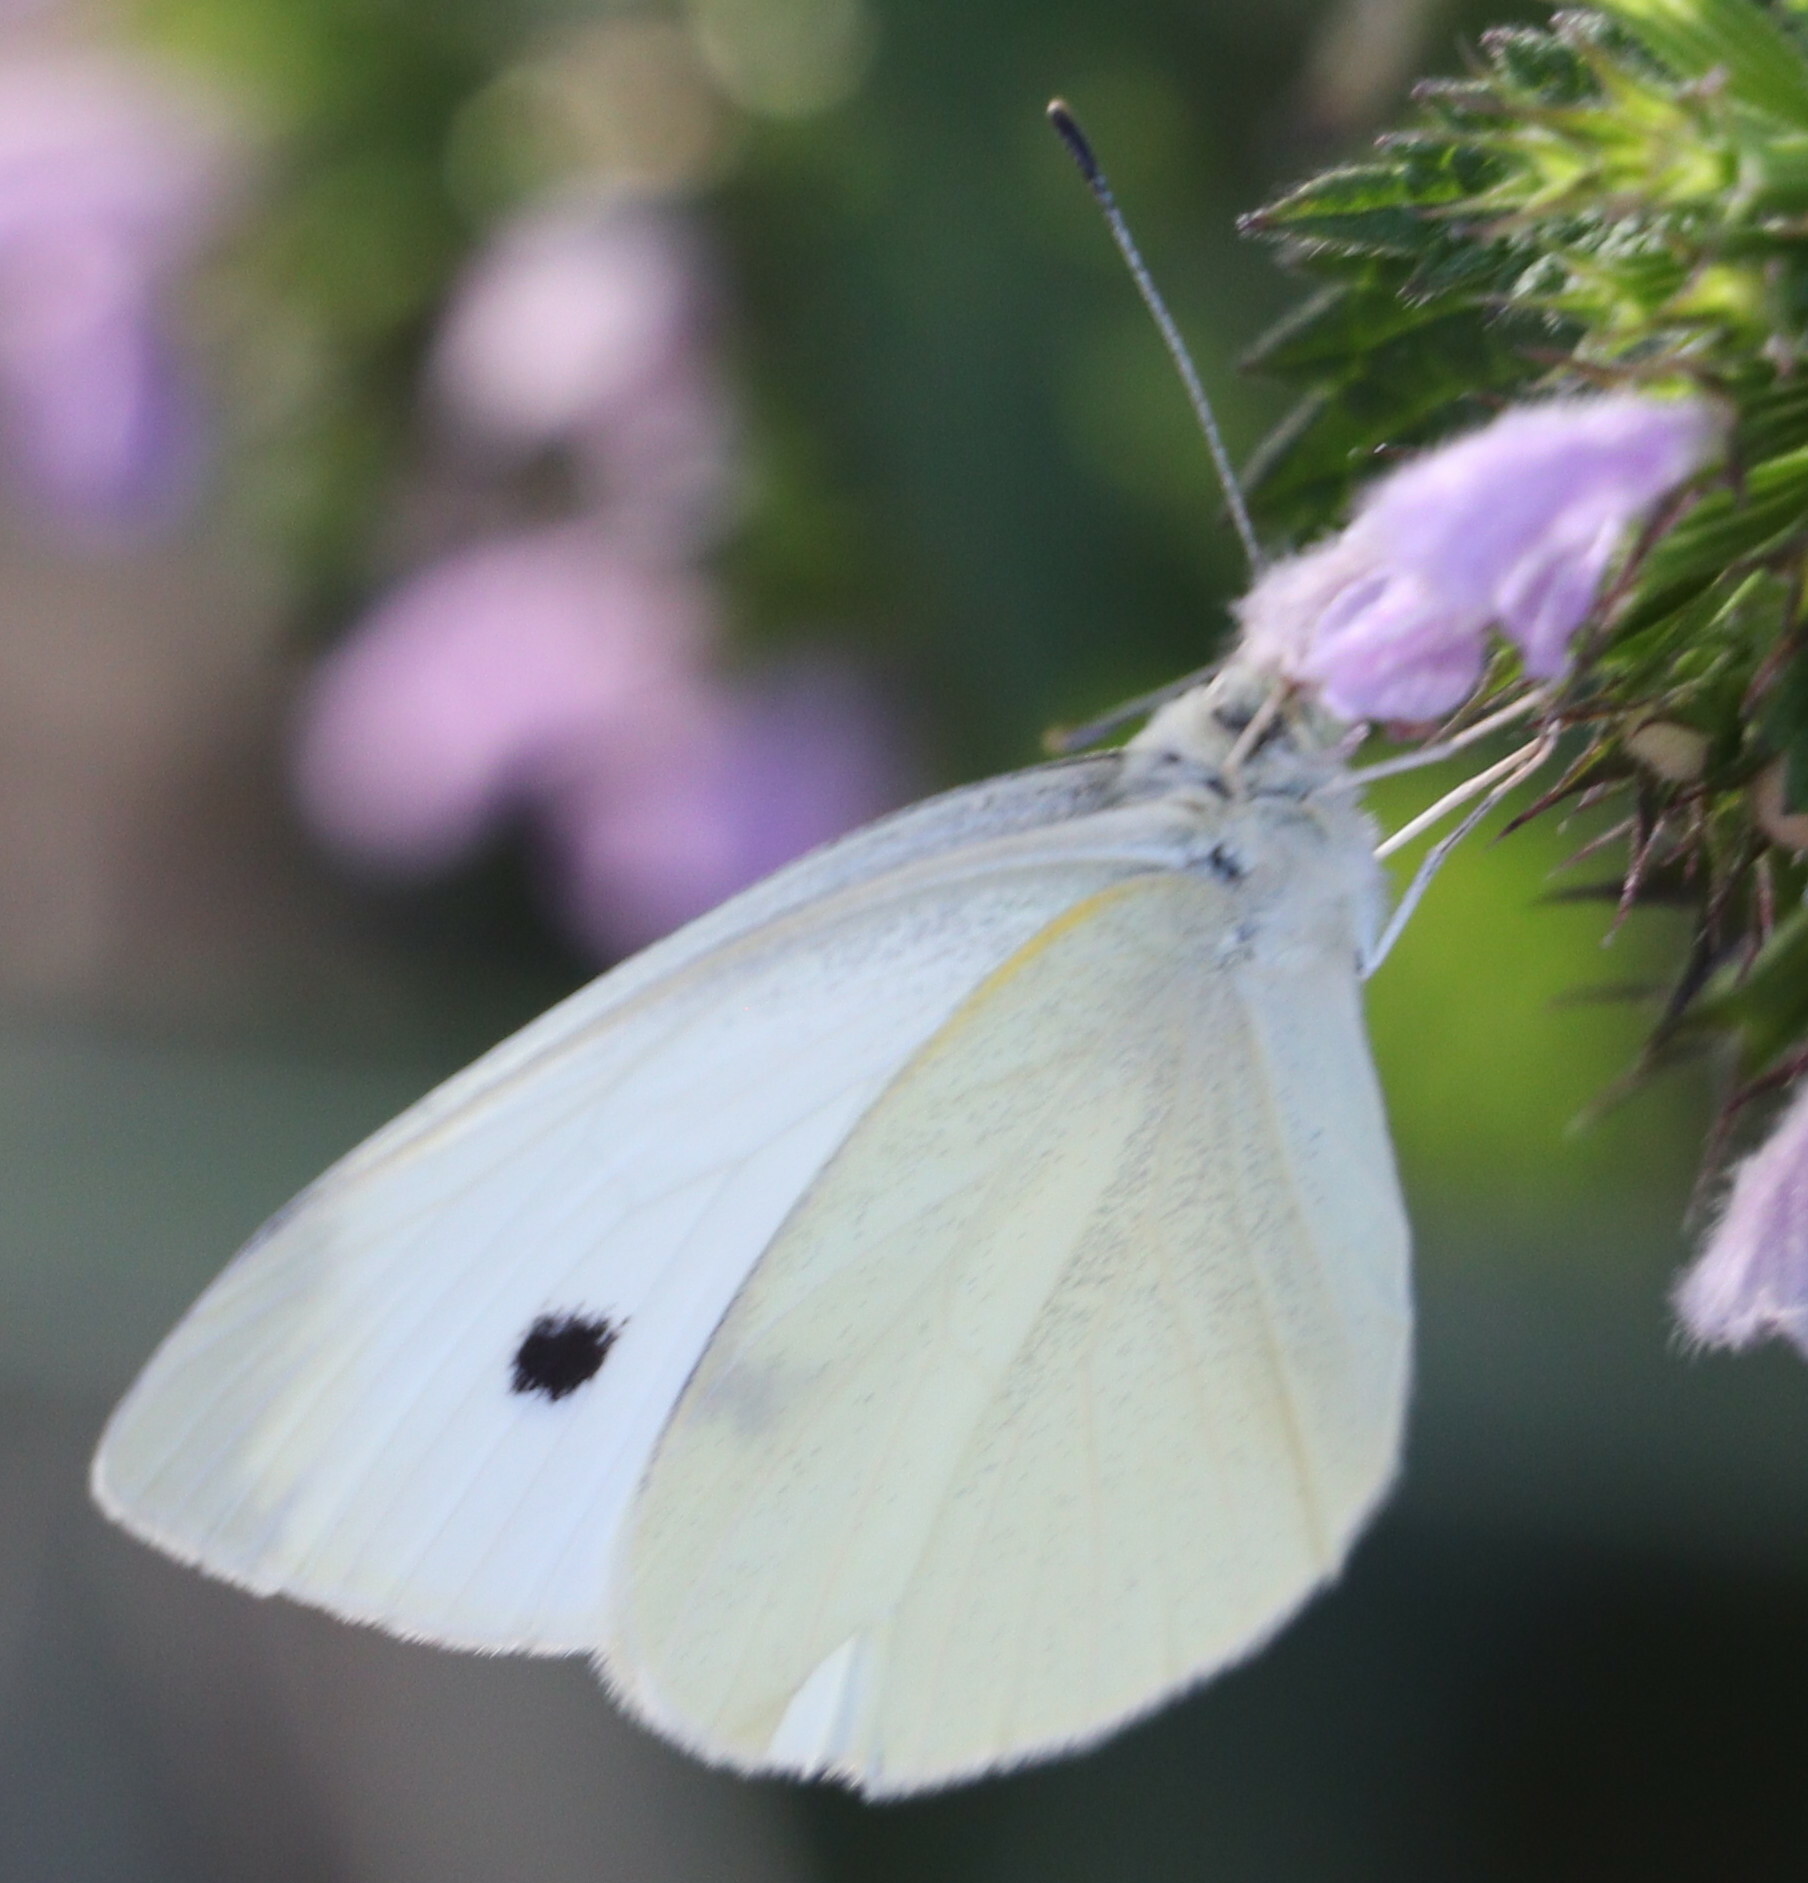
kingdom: Animalia
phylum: Arthropoda
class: Insecta
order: Lepidoptera
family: Pieridae
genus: Pieris
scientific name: Pieris rapae
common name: Small white
